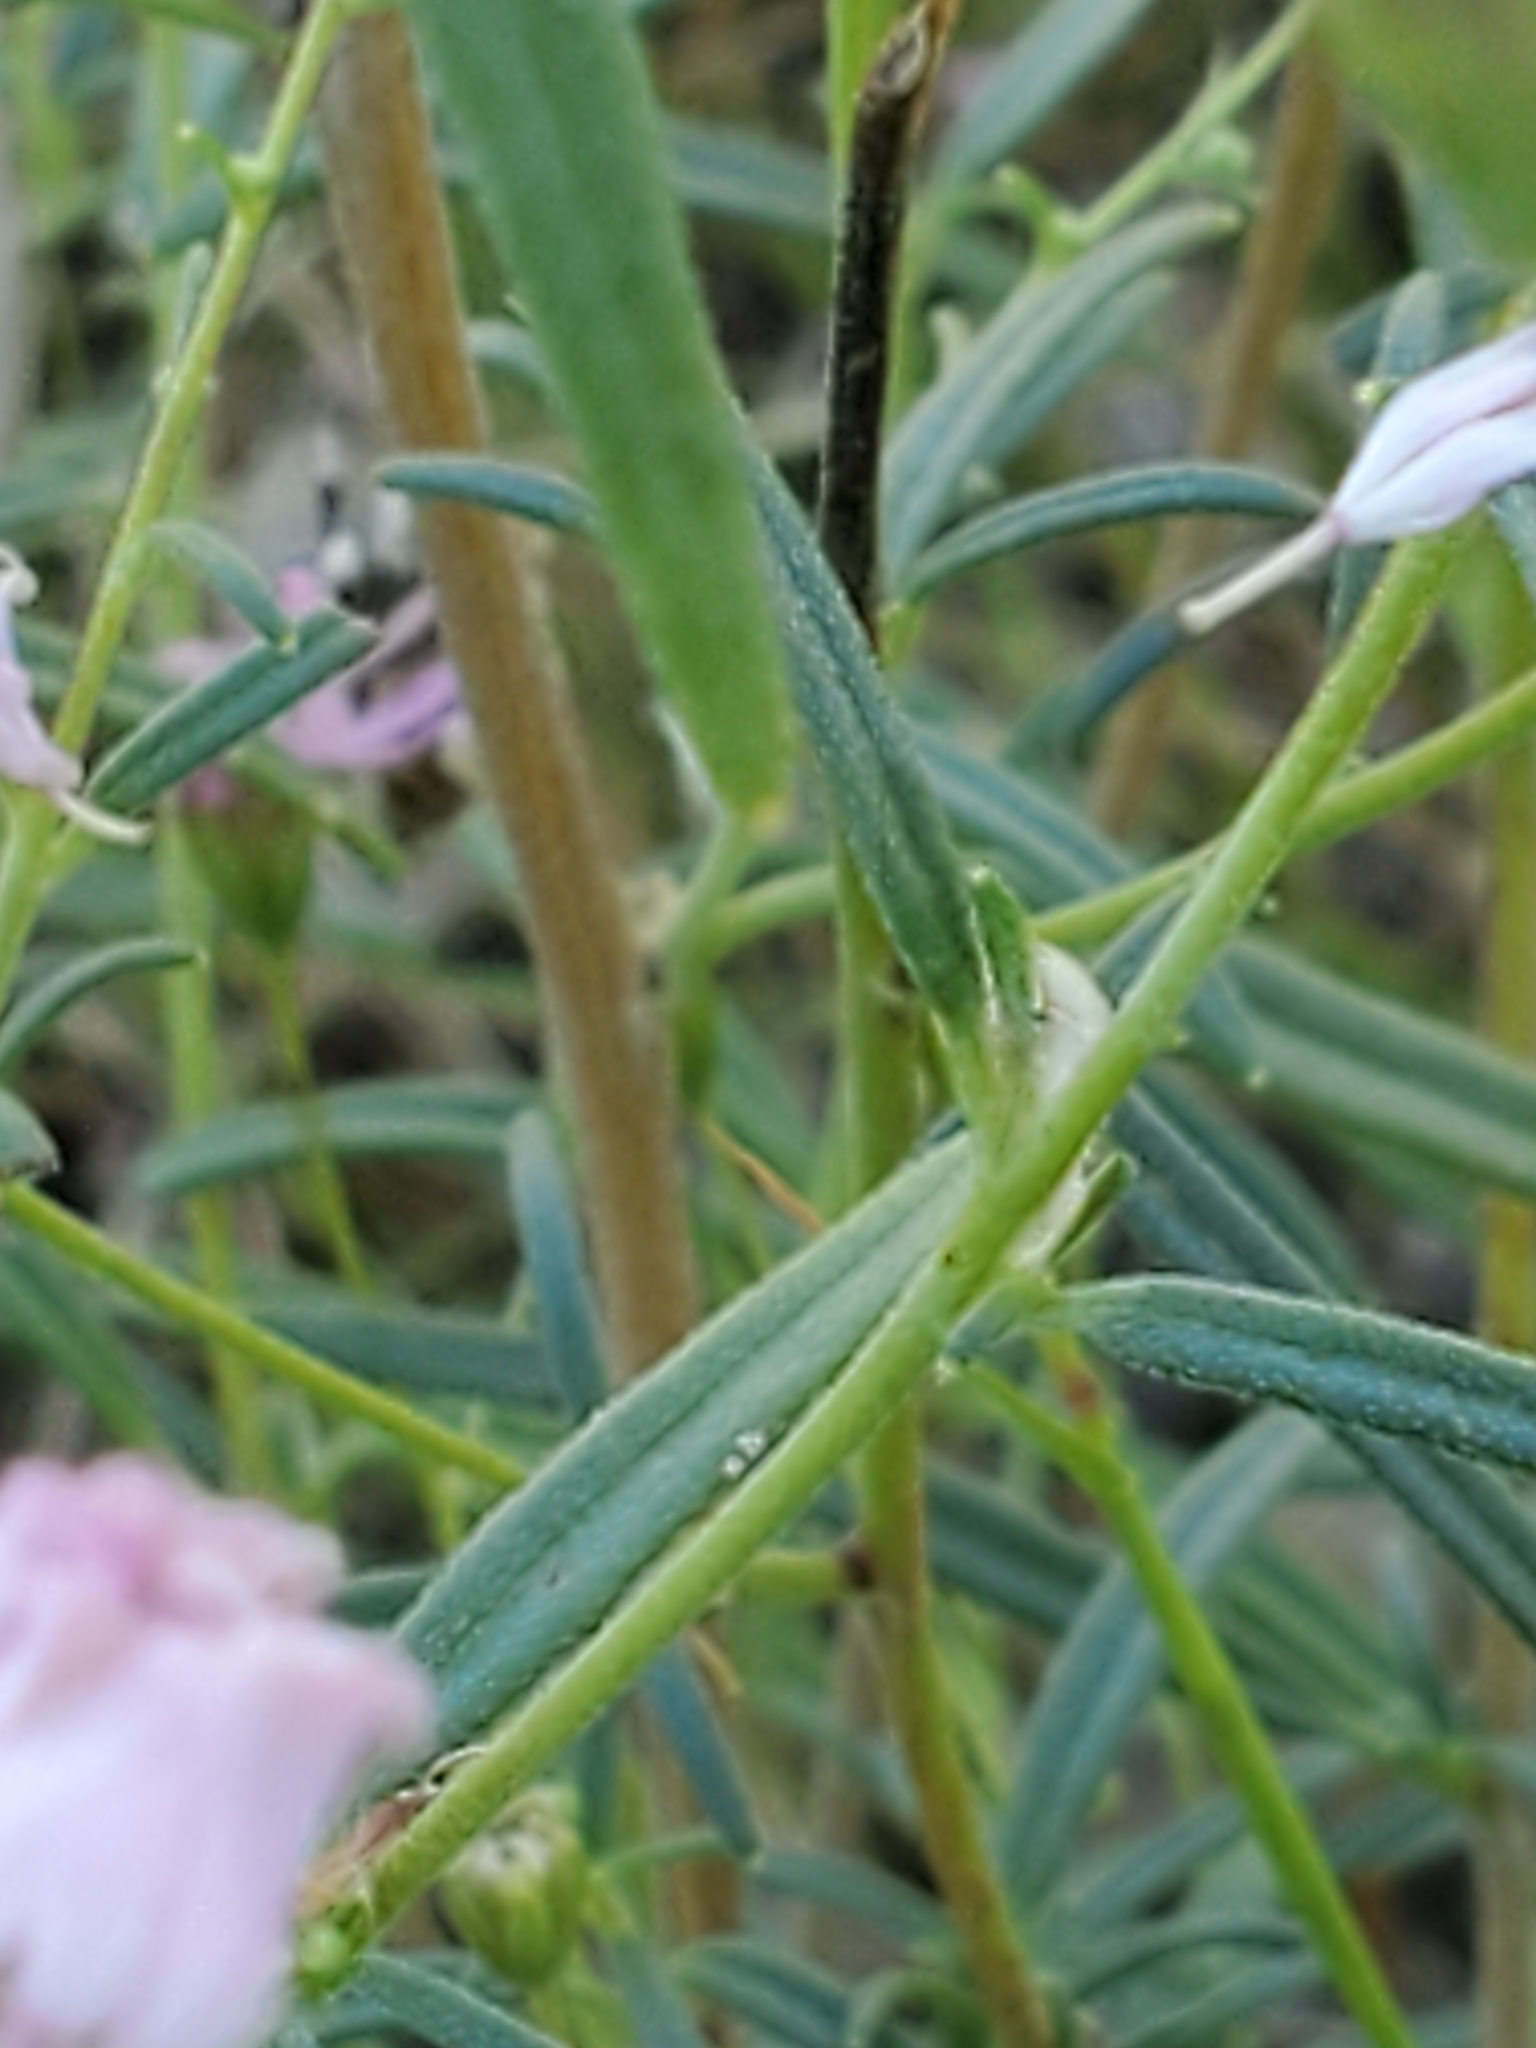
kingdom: Plantae
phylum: Tracheophyta
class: Magnoliopsida
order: Asterales
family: Asteraceae
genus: Palafoxia
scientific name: Palafoxia callosa
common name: Small palafox
